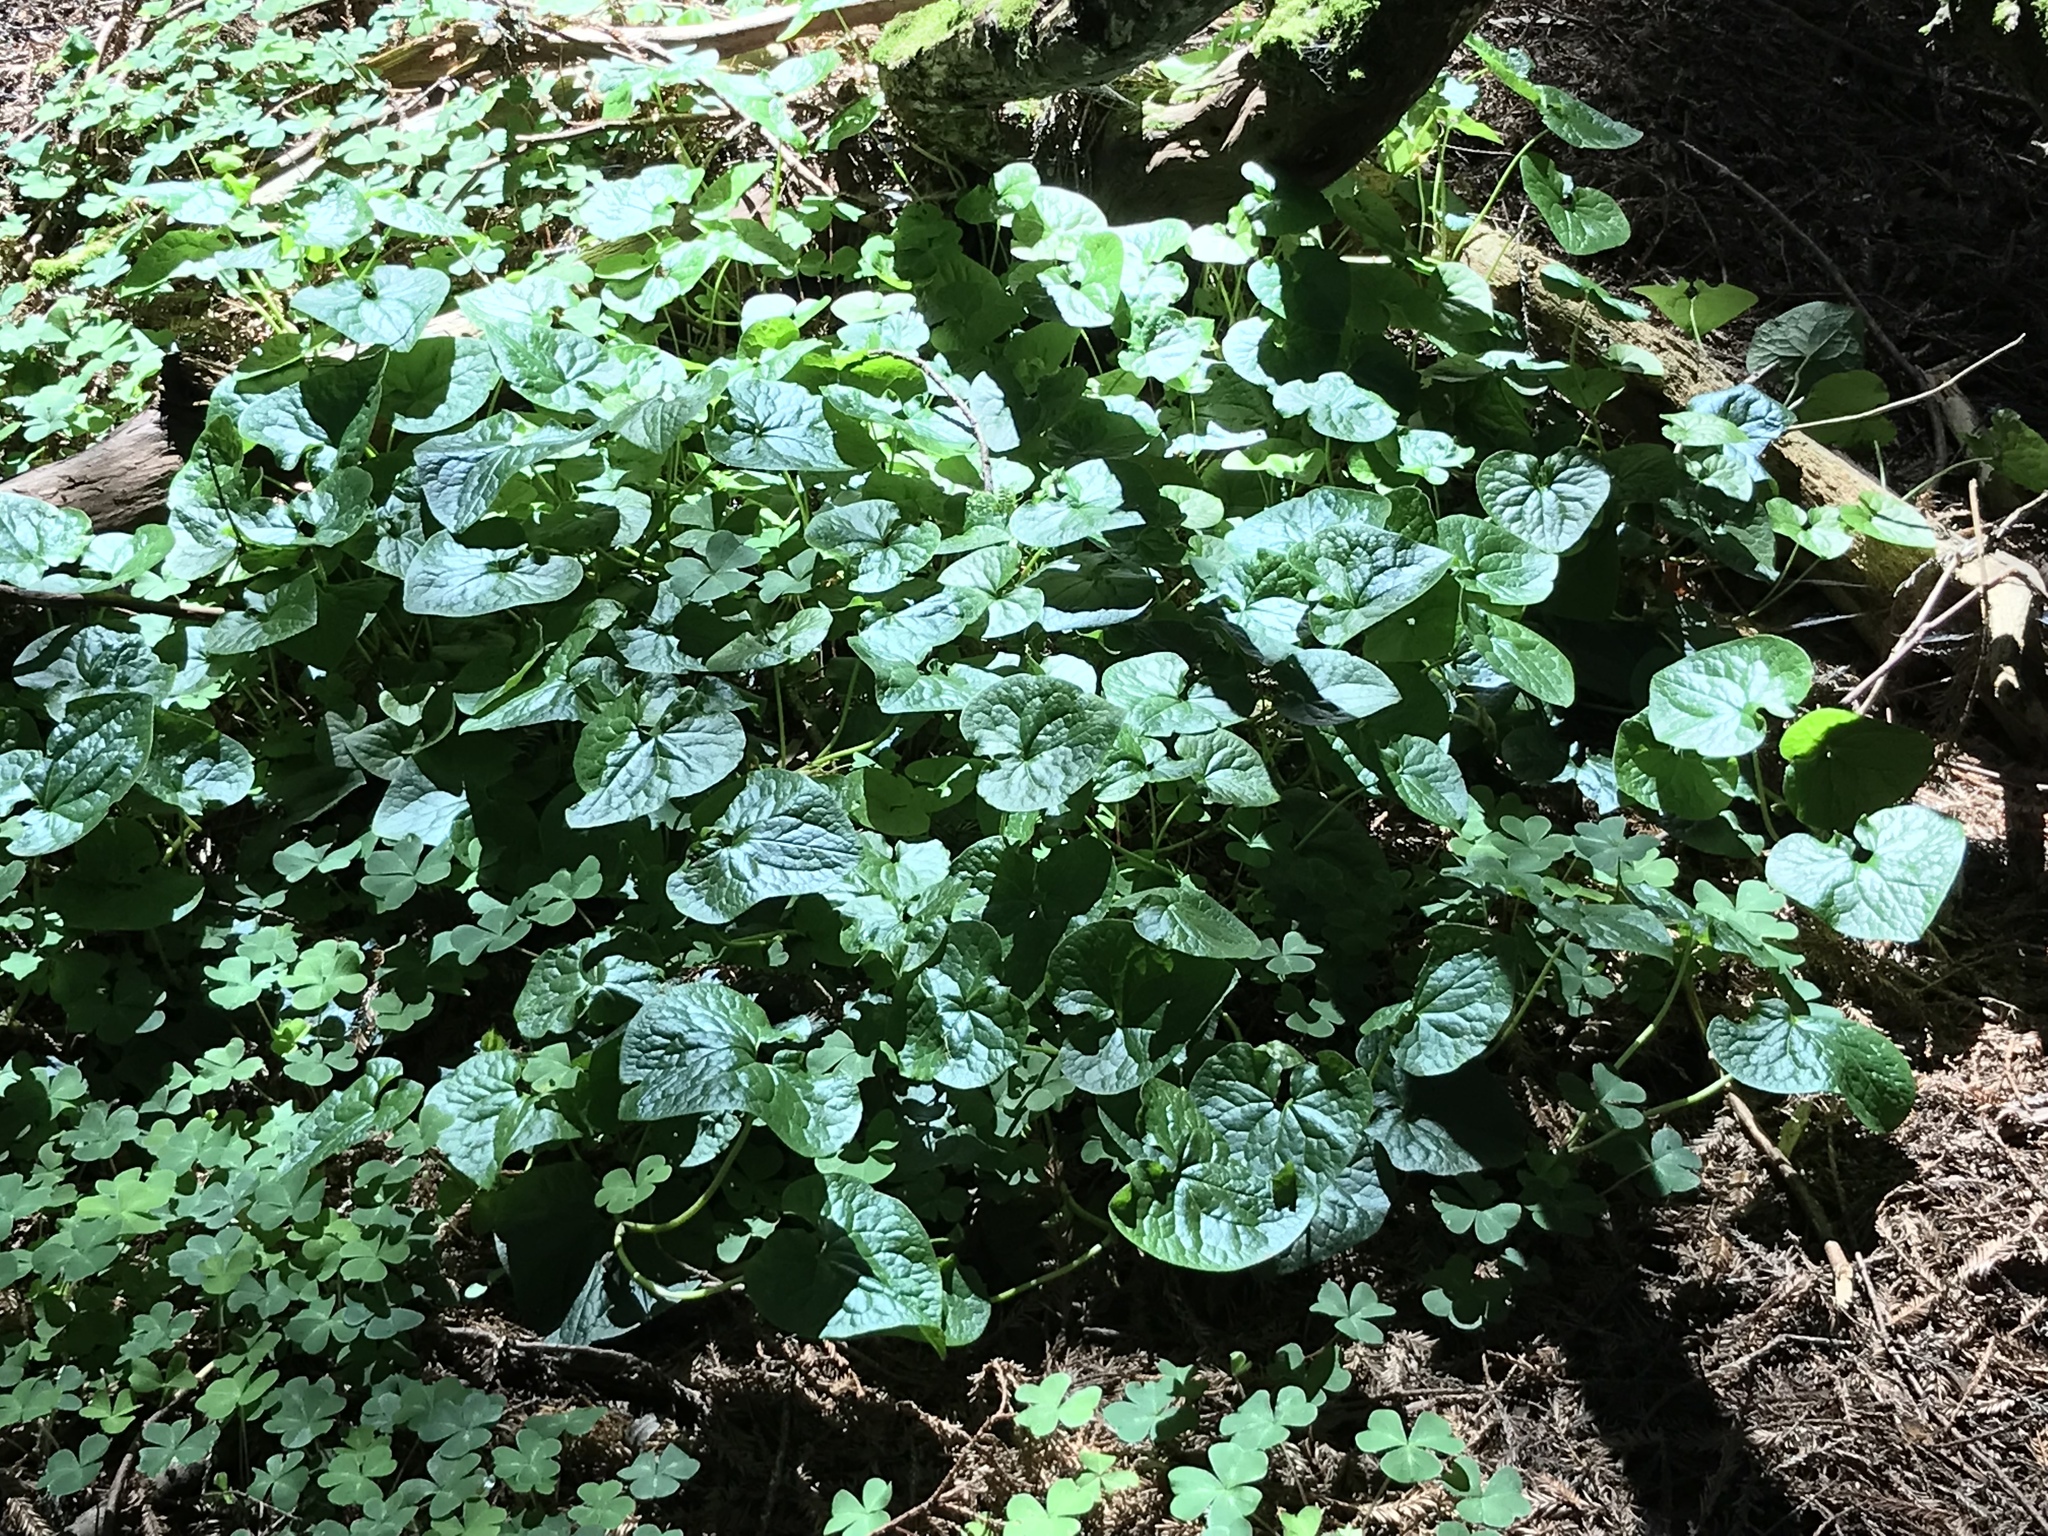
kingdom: Plantae
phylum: Tracheophyta
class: Magnoliopsida
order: Piperales
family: Aristolochiaceae
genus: Asarum
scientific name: Asarum caudatum
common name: Wild ginger
